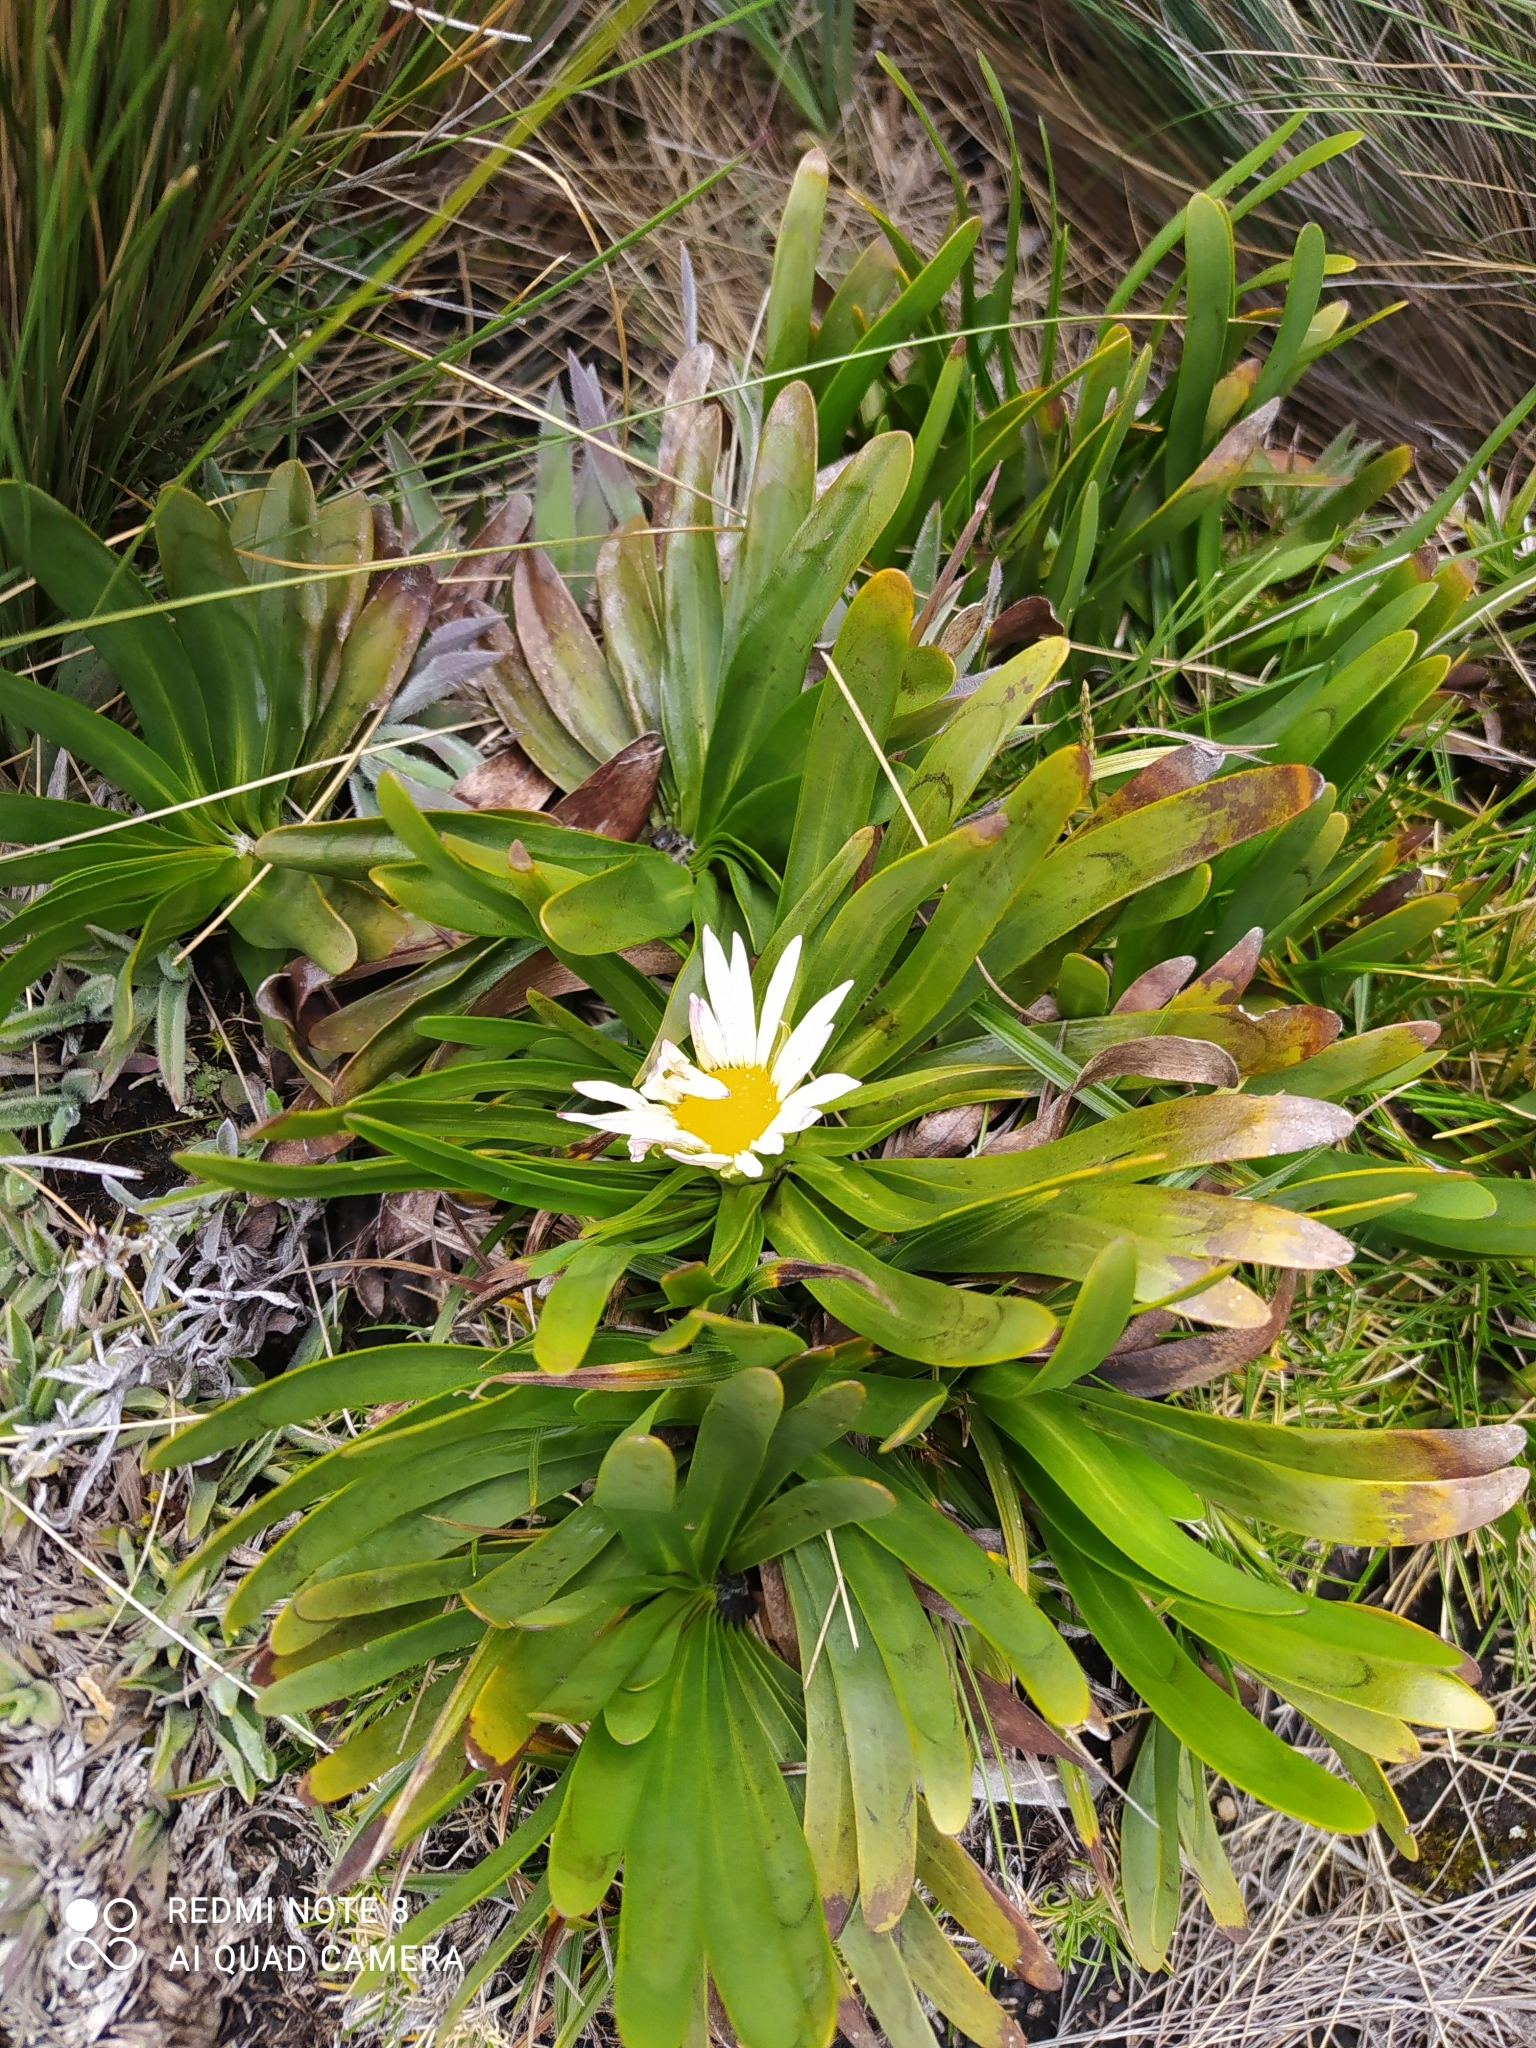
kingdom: Plantae
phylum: Tracheophyta
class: Magnoliopsida
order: Asterales
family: Asteraceae
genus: Rockhausenia
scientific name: Rockhausenia nubigena
